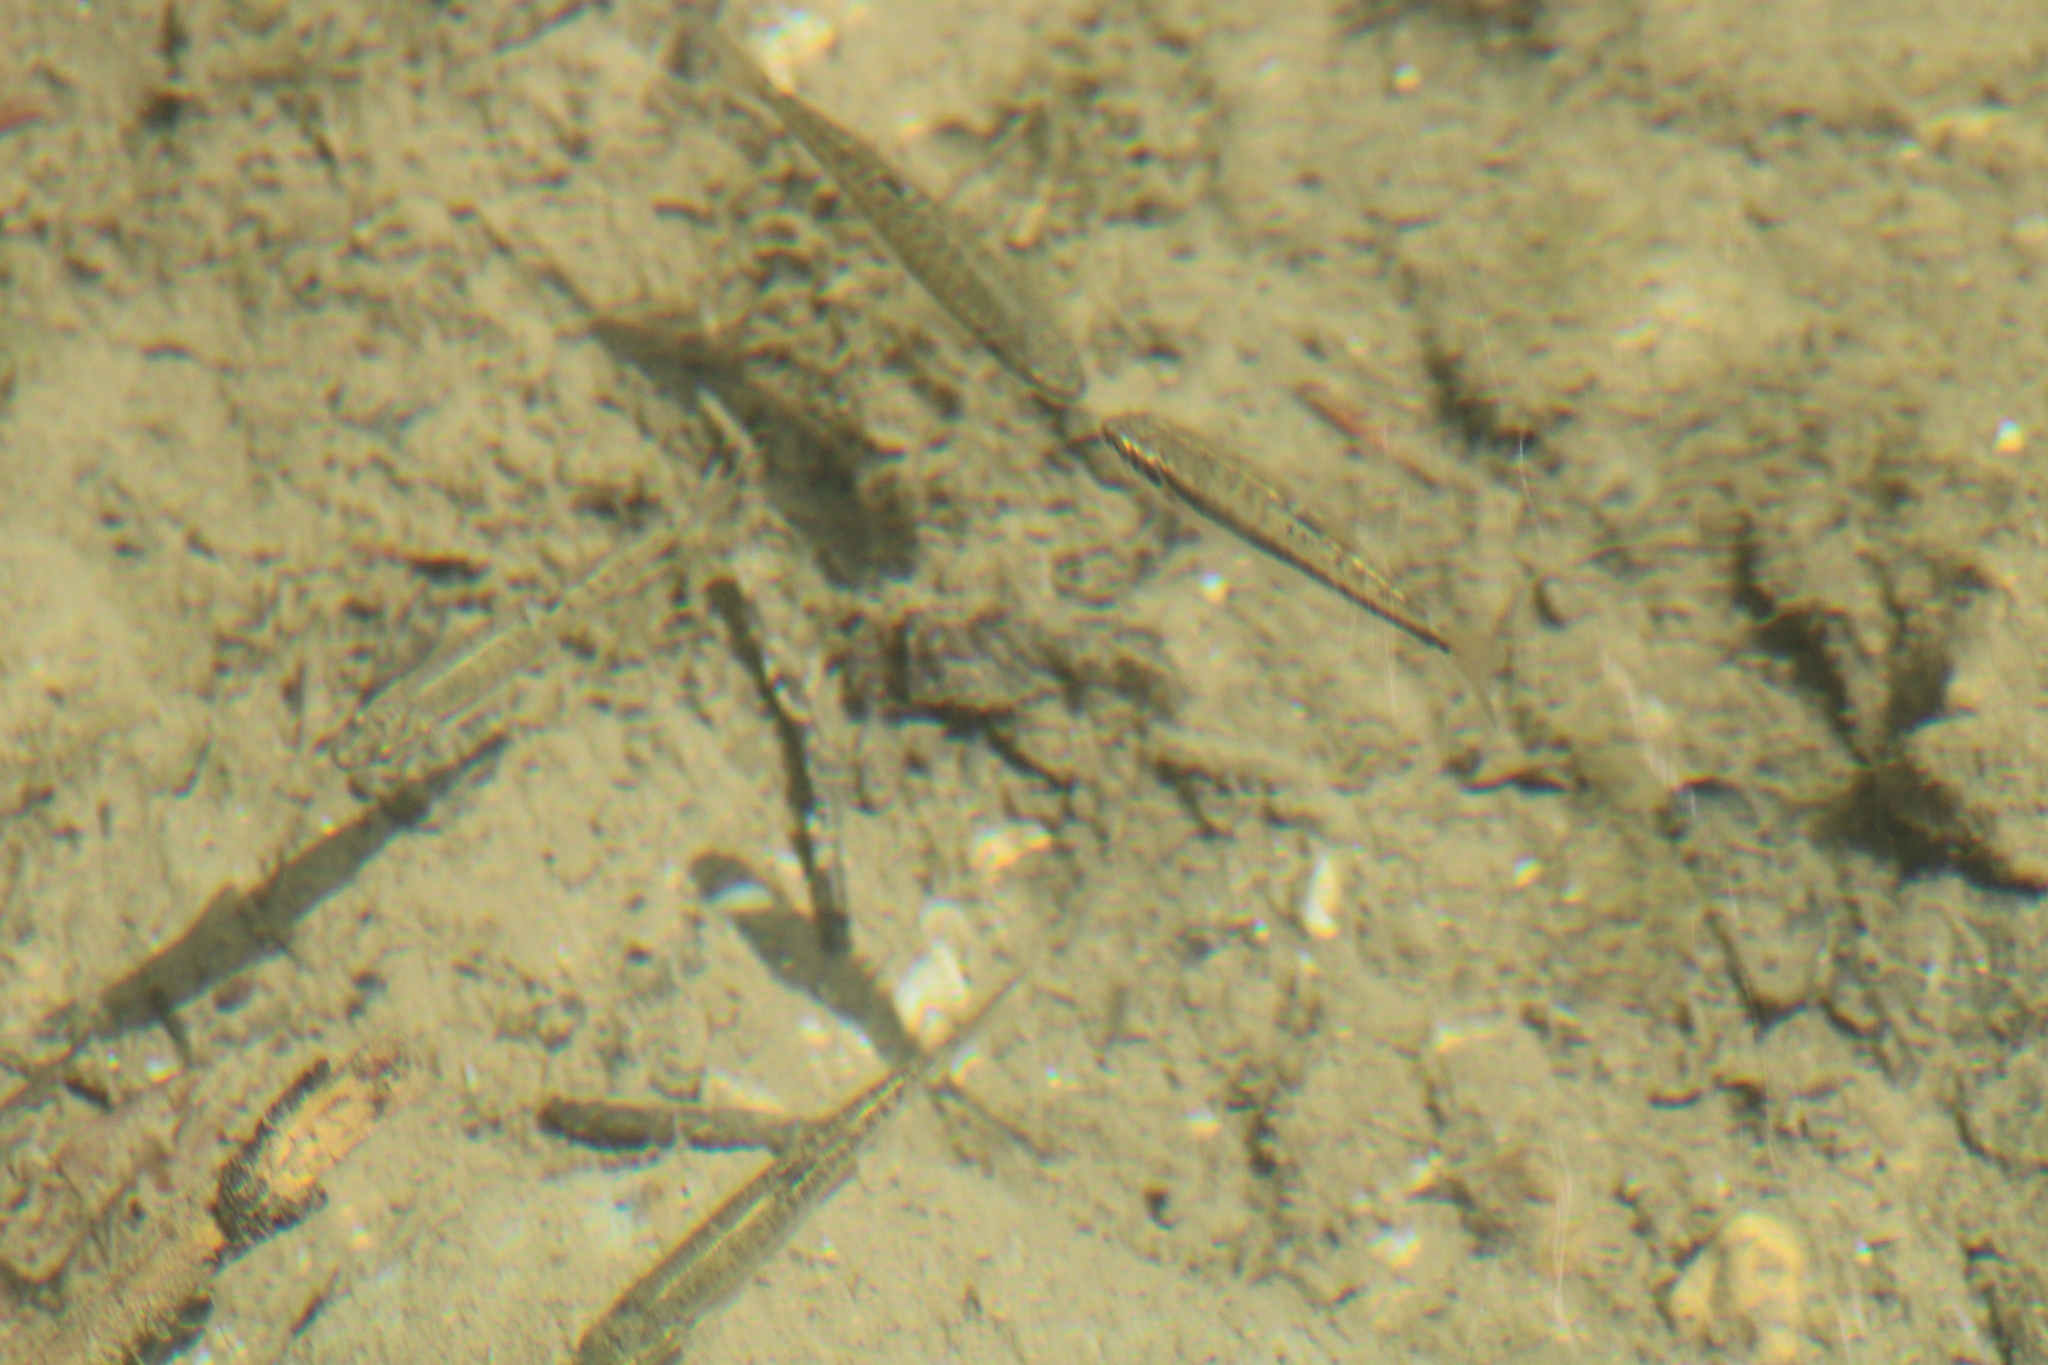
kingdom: Animalia
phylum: Chordata
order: Cypriniformes
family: Cyprinidae
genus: Phoxinus
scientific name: Phoxinus phoxinus
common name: Minnow
